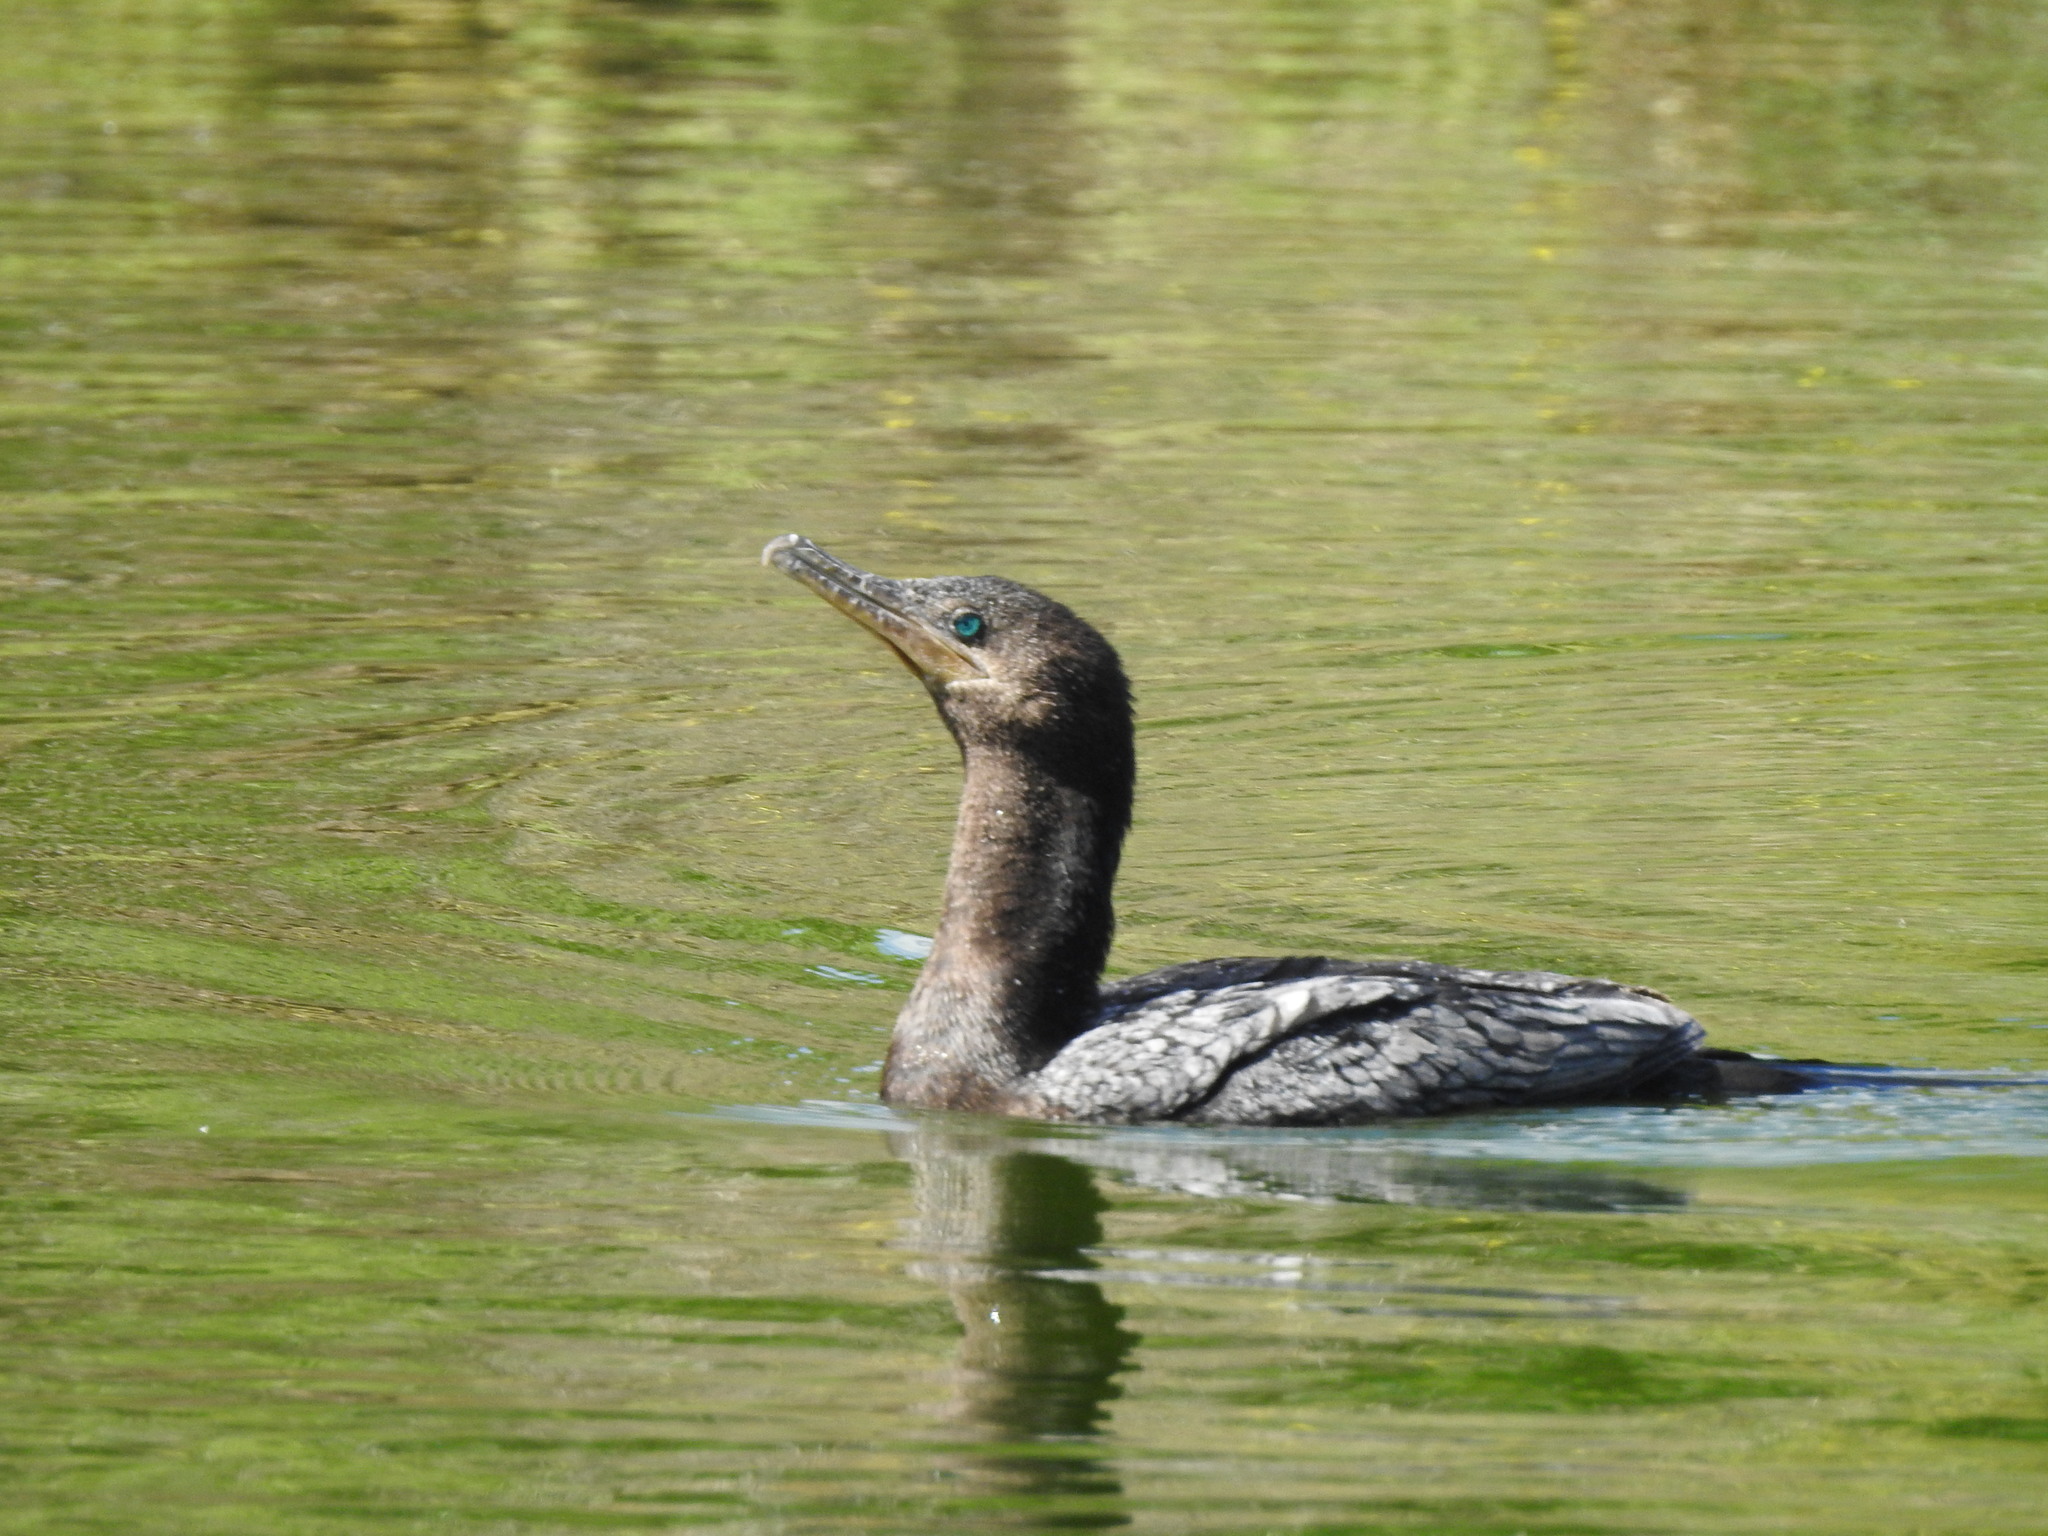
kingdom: Animalia
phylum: Chordata
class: Aves
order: Suliformes
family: Phalacrocoracidae
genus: Phalacrocorax
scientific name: Phalacrocorax brasilianus
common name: Neotropic cormorant
